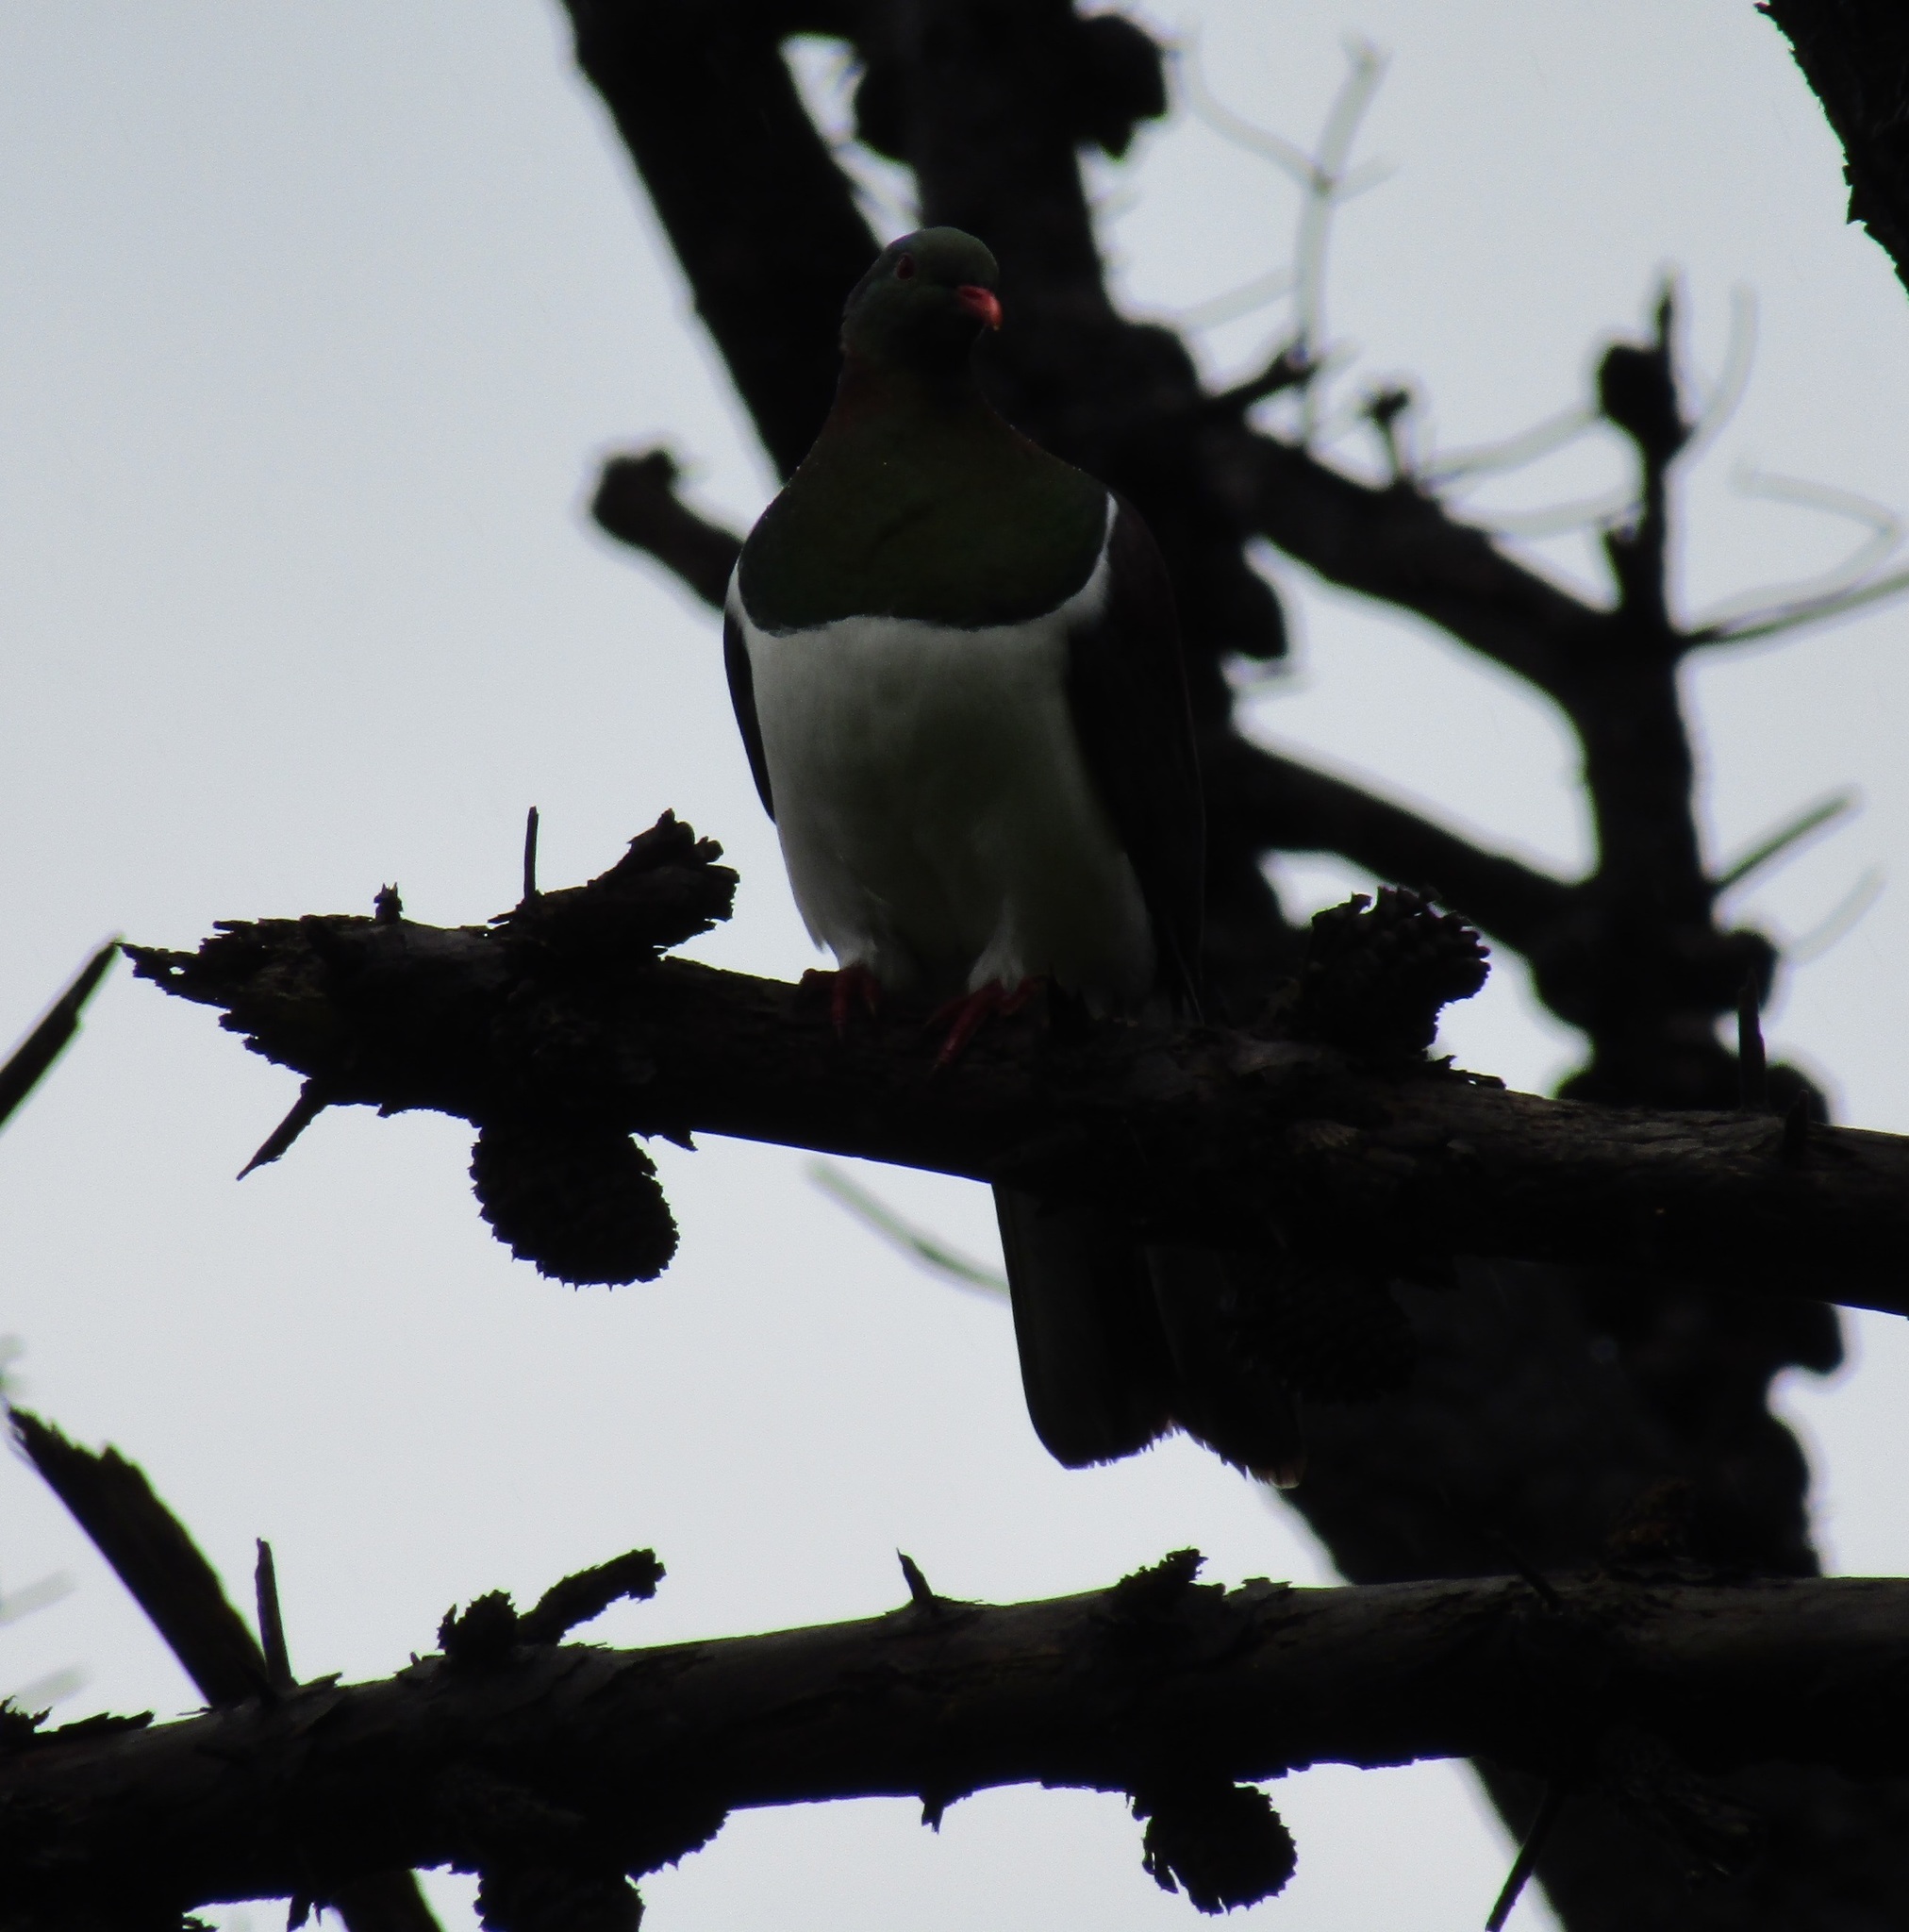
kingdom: Animalia
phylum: Chordata
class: Aves
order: Columbiformes
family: Columbidae
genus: Hemiphaga
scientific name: Hemiphaga novaeseelandiae
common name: New zealand pigeon
